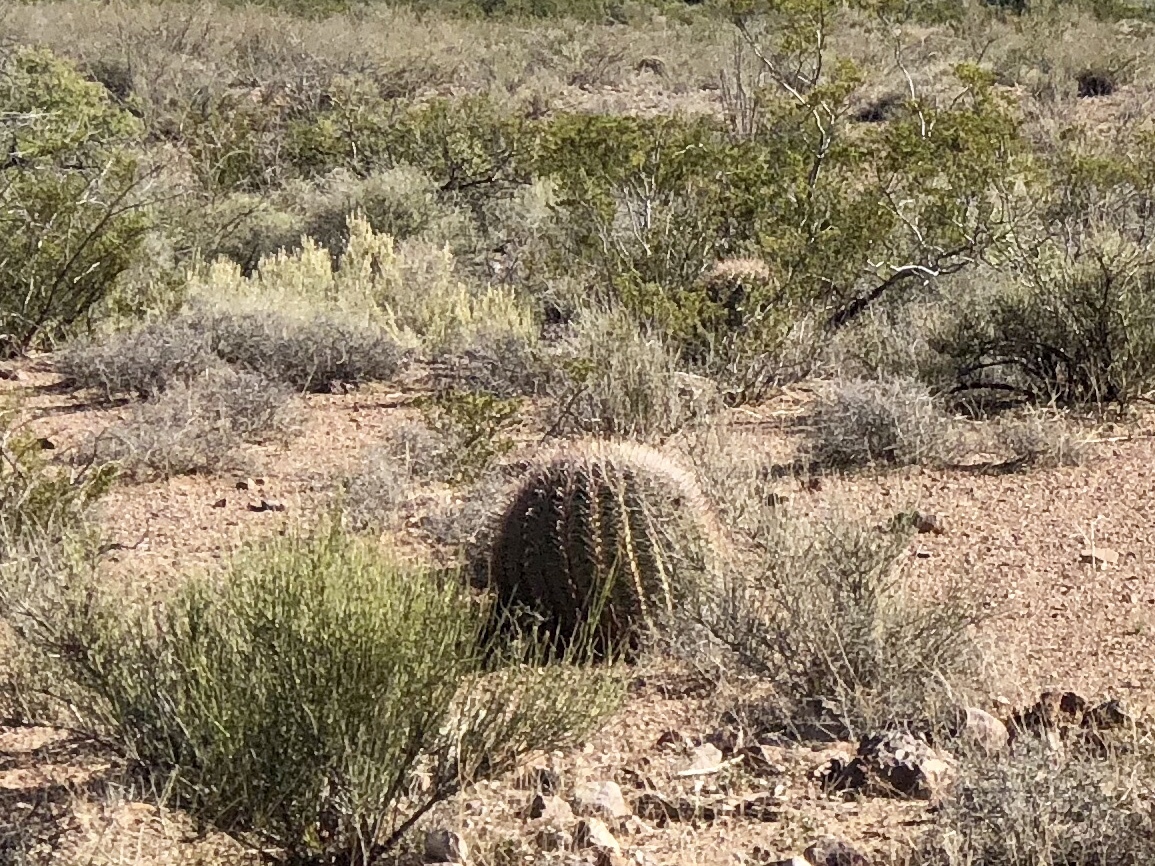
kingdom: Plantae
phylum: Tracheophyta
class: Magnoliopsida
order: Caryophyllales
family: Cactaceae
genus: Ferocactus
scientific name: Ferocactus wislizeni
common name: Candy barrel cactus
